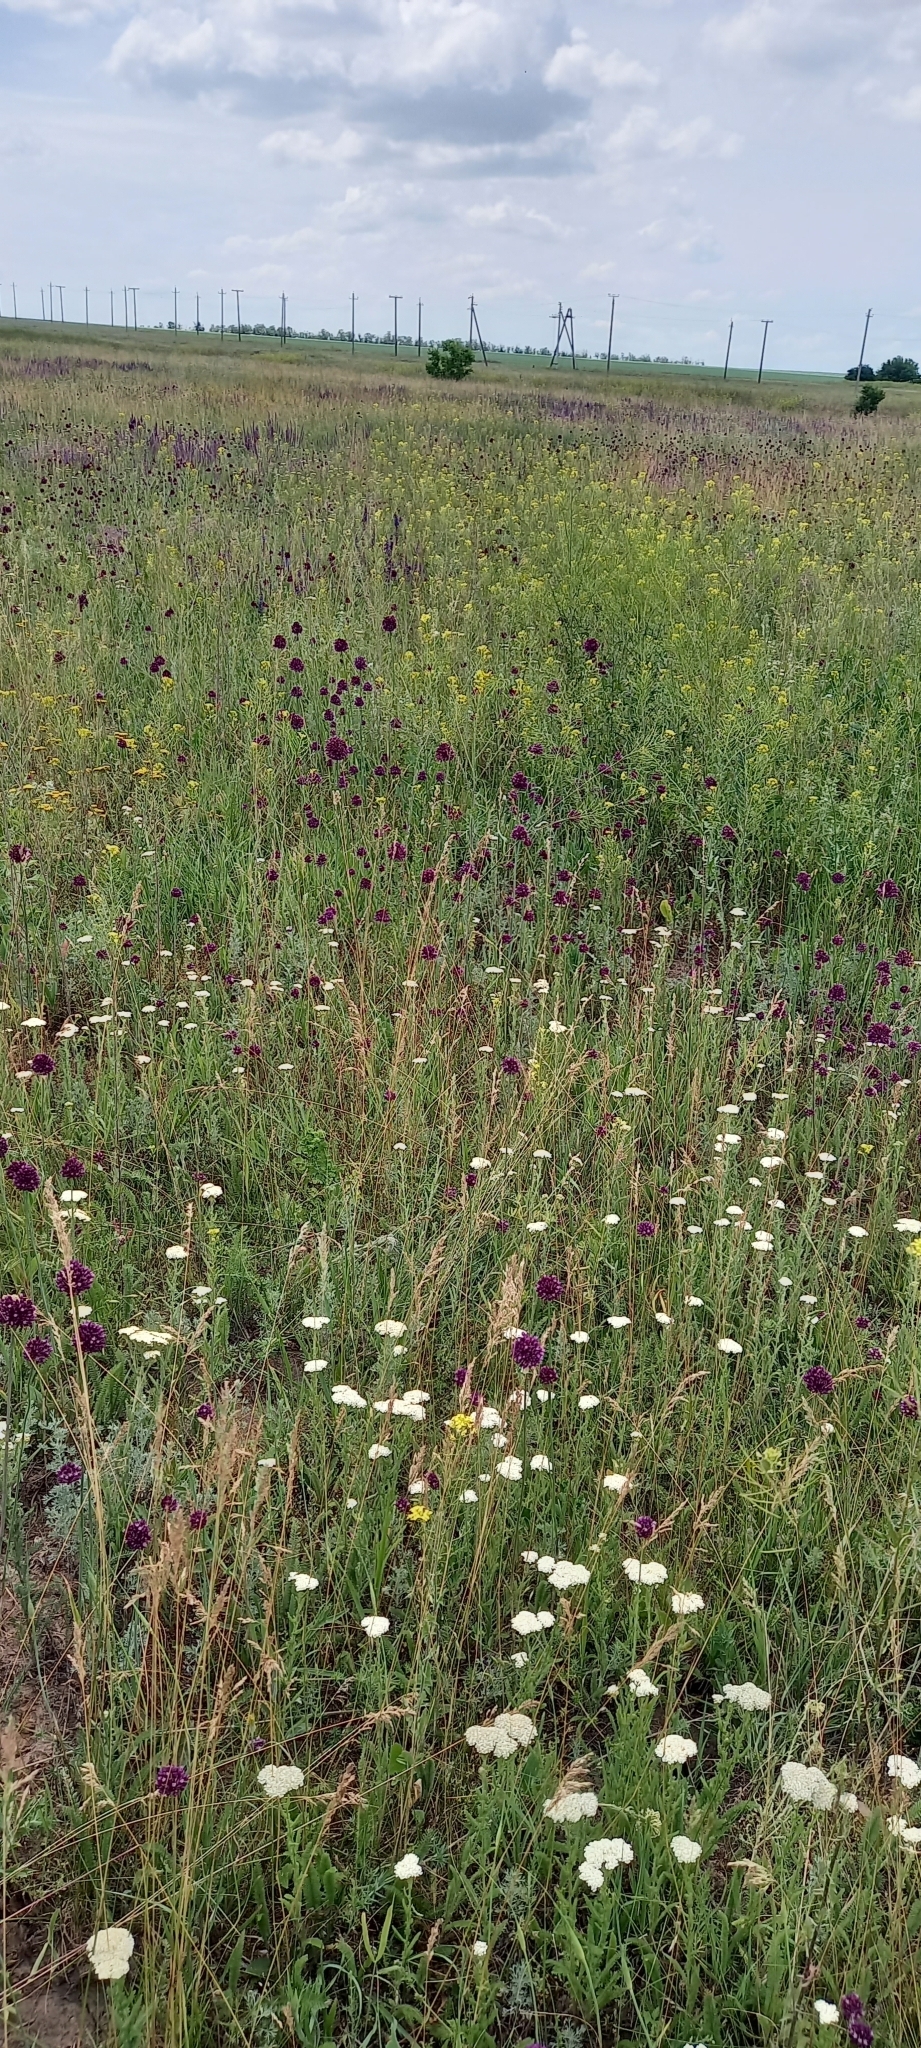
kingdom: Plantae
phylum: Tracheophyta
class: Liliopsida
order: Asparagales
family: Amaryllidaceae
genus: Allium
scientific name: Allium rotundum
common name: Sand leek
